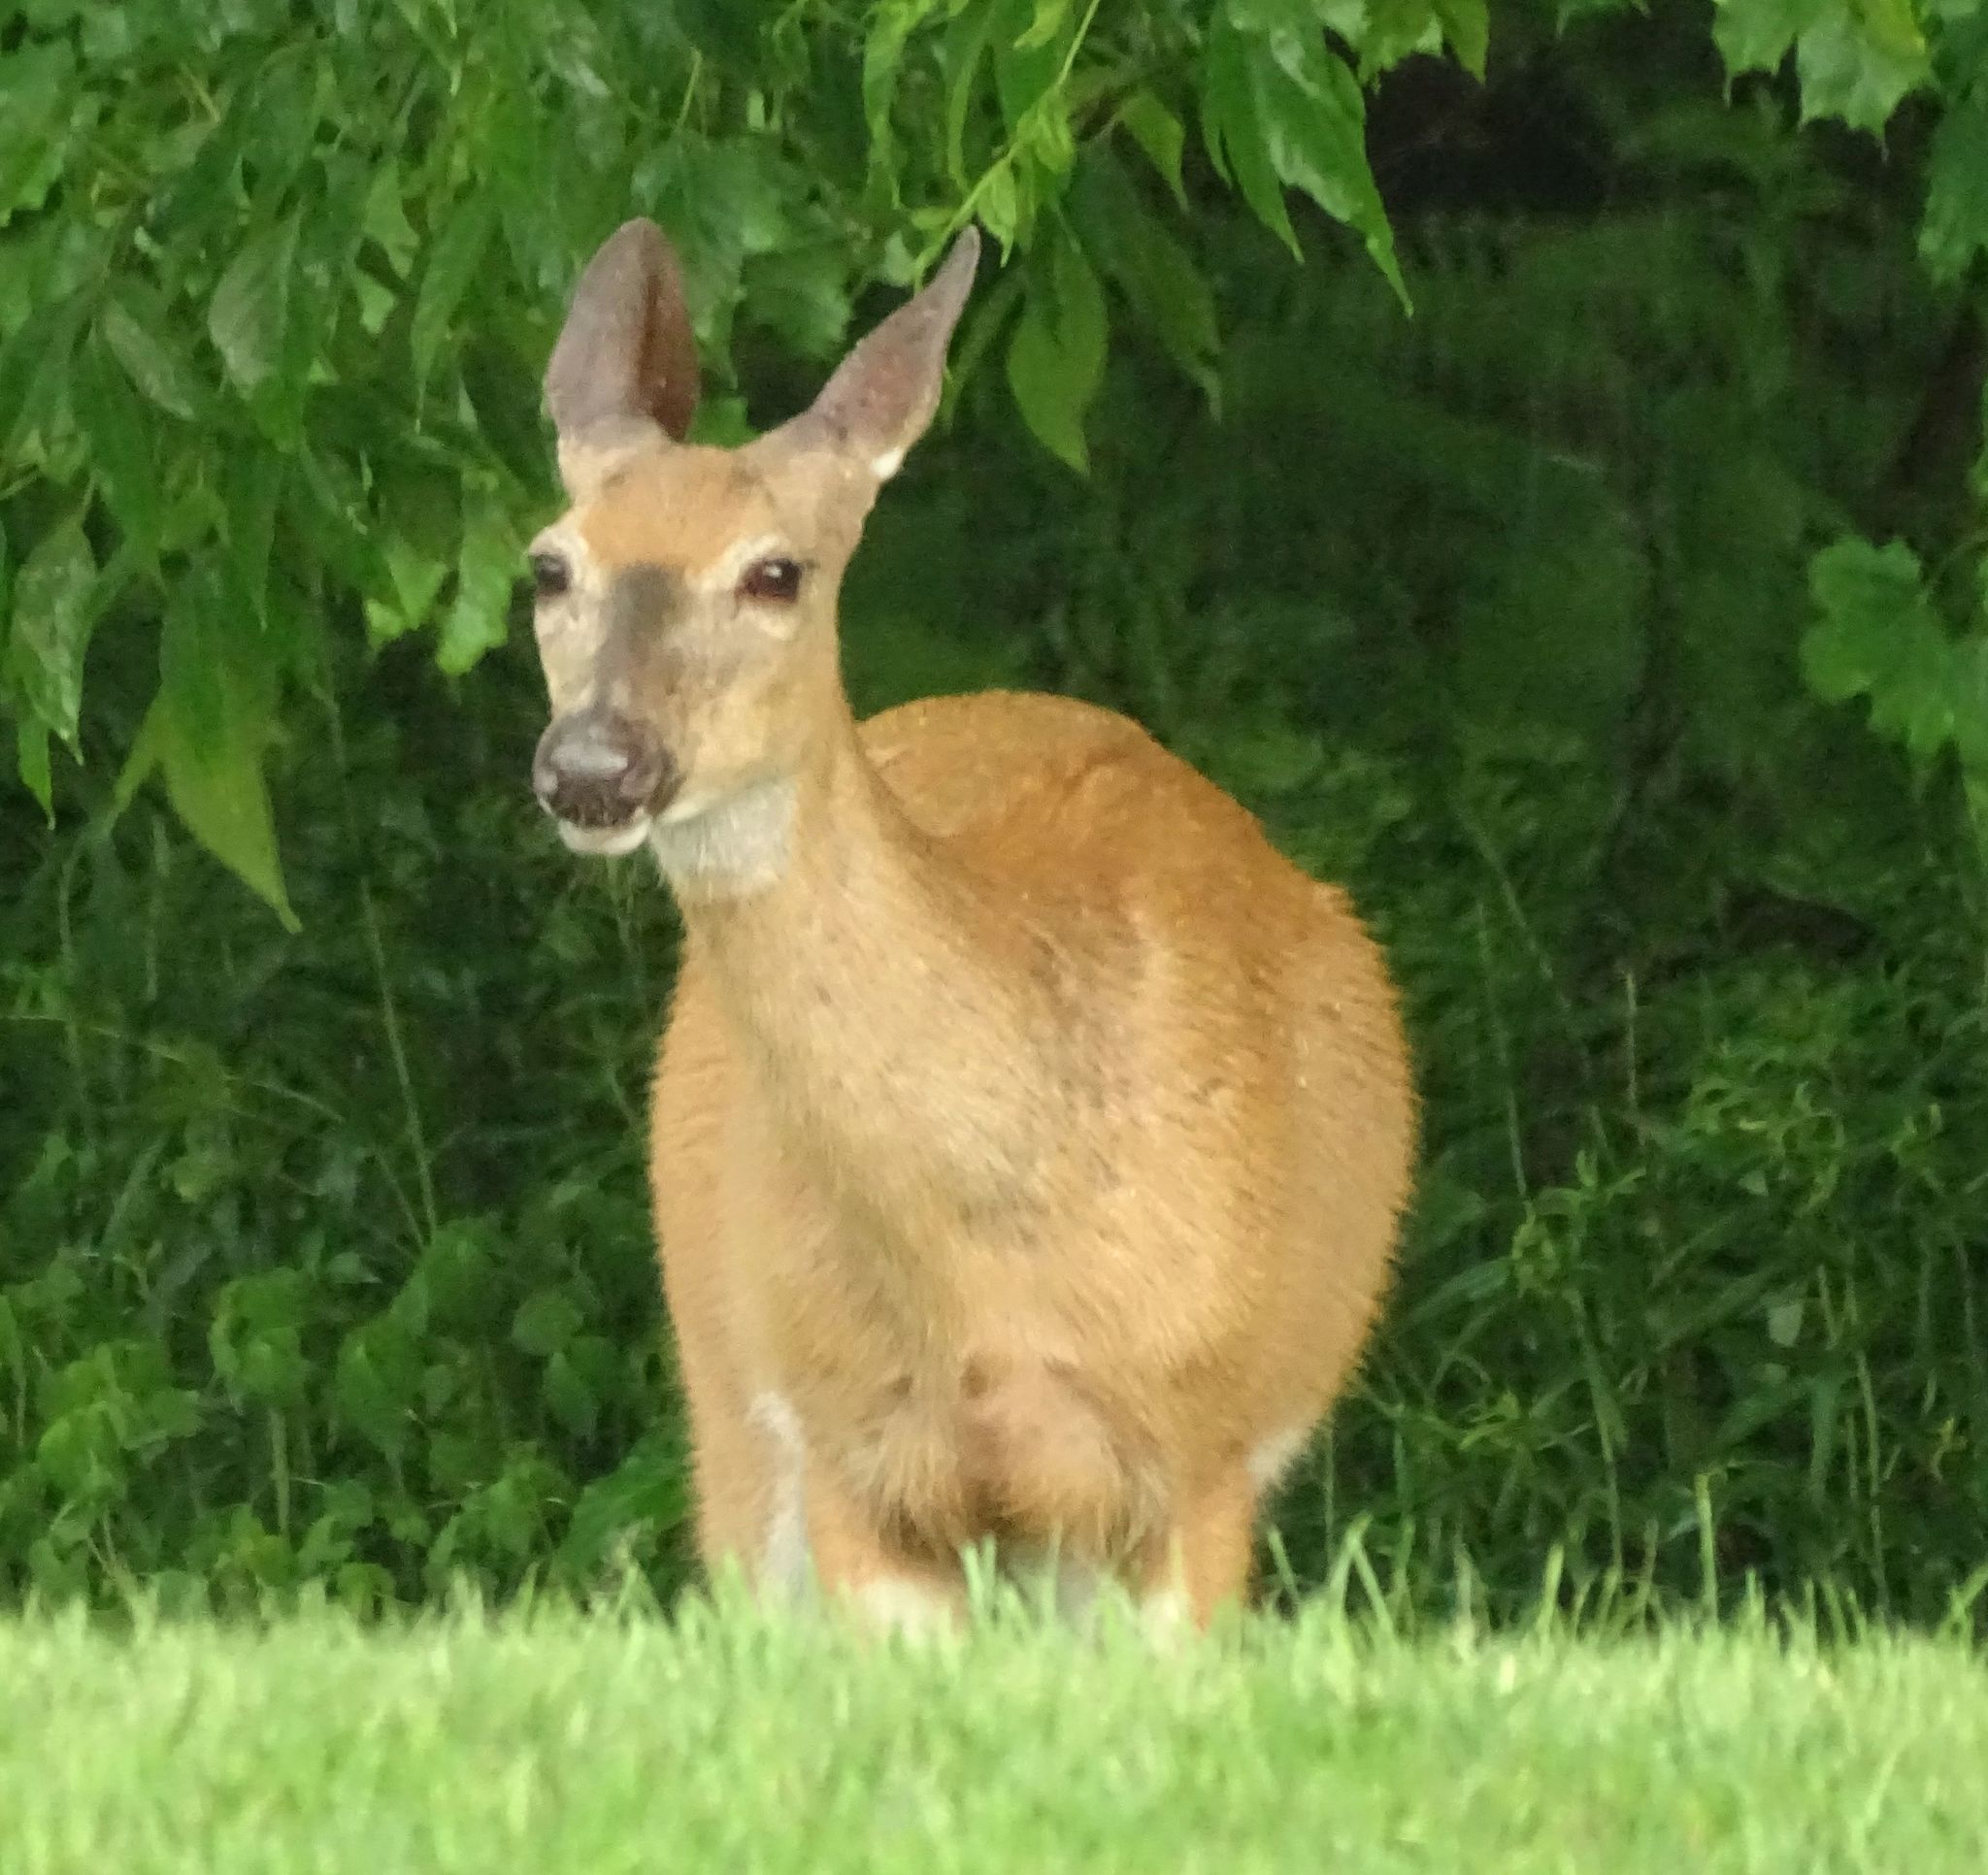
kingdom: Animalia
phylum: Chordata
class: Mammalia
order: Artiodactyla
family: Cervidae
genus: Odocoileus
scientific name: Odocoileus virginianus
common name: White-tailed deer
